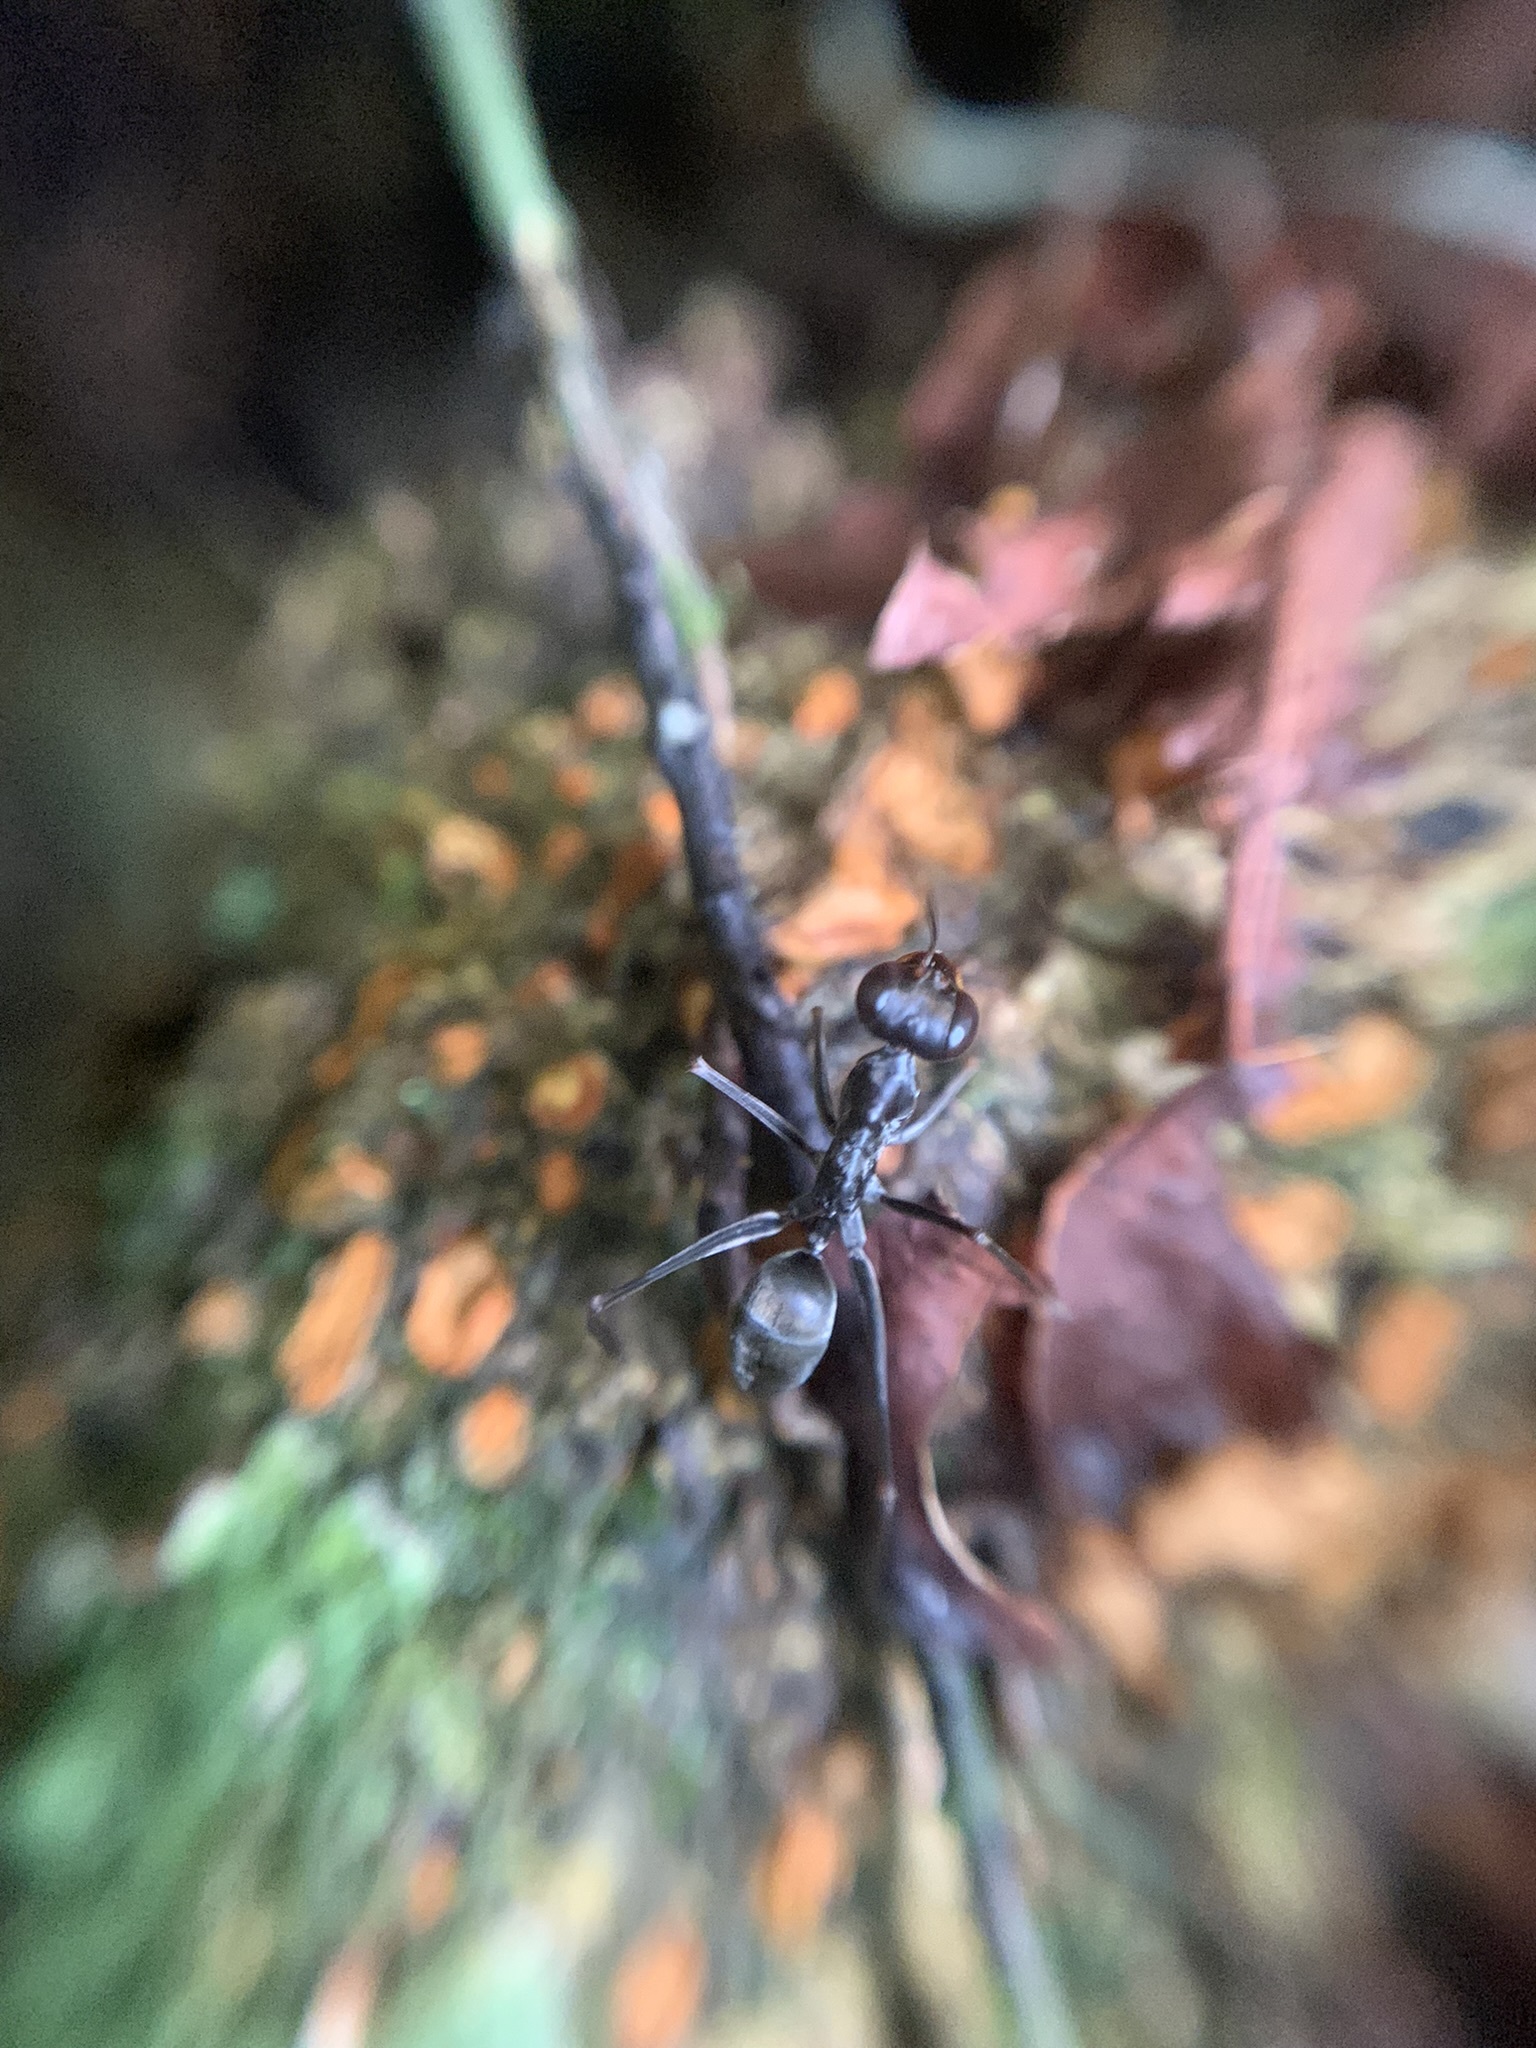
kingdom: Animalia
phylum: Arthropoda
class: Insecta
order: Hymenoptera
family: Formicidae
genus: Gigantiops
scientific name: Gigantiops destructor
